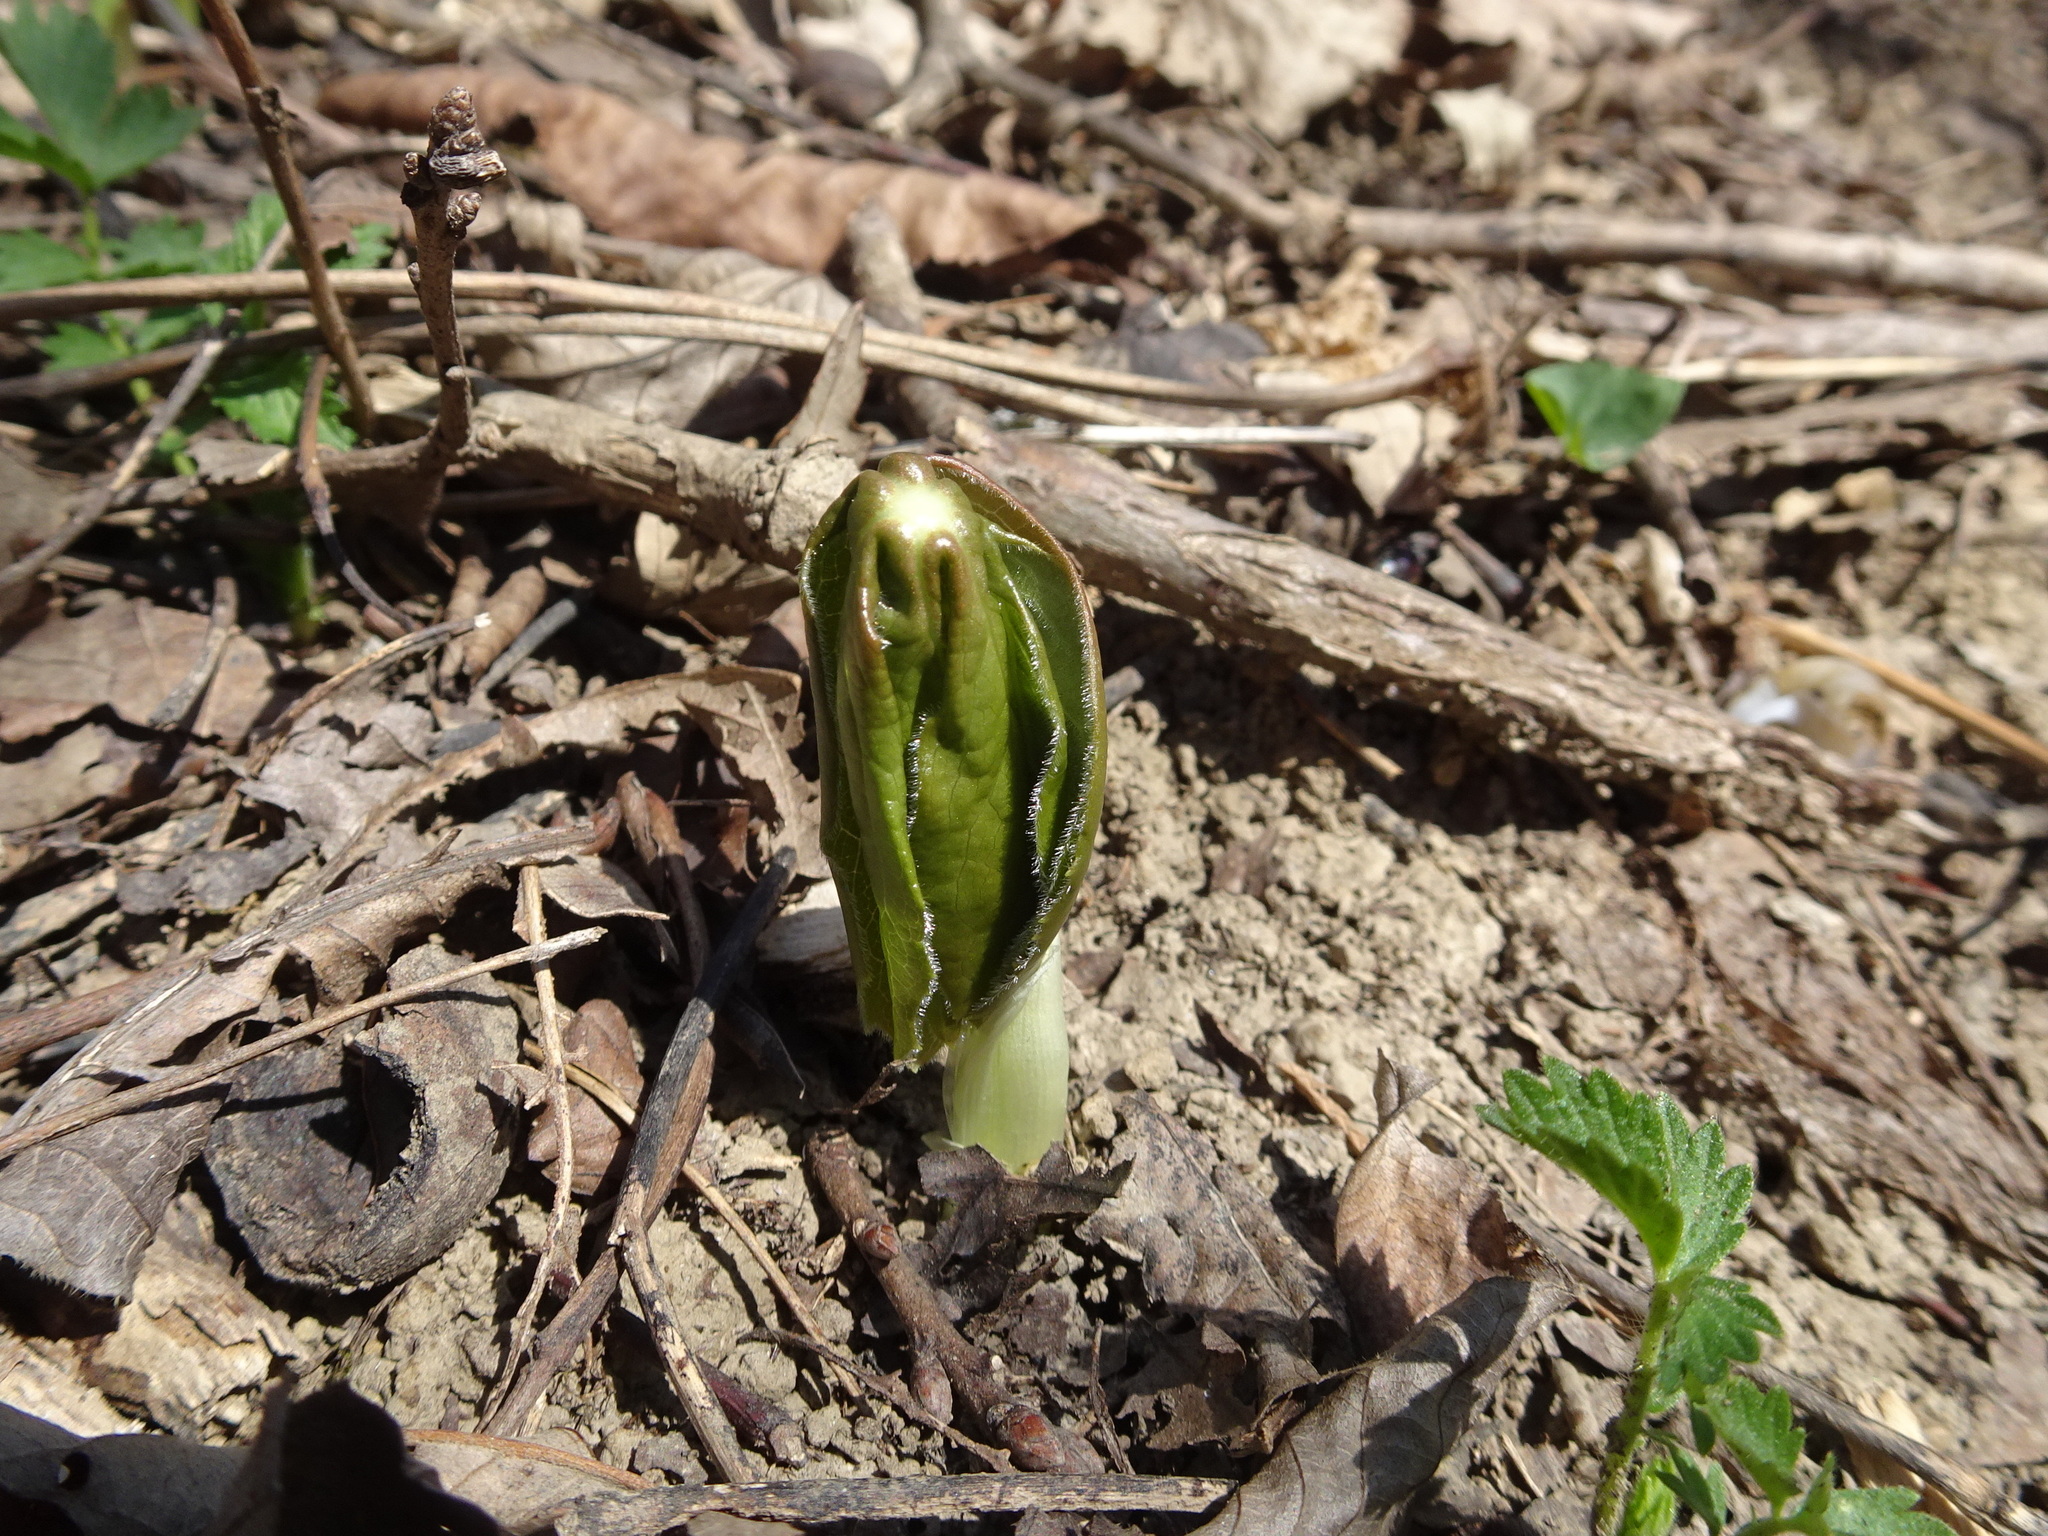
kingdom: Plantae
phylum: Tracheophyta
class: Magnoliopsida
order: Ranunculales
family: Berberidaceae
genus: Podophyllum
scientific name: Podophyllum peltatum
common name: Wild mandrake
